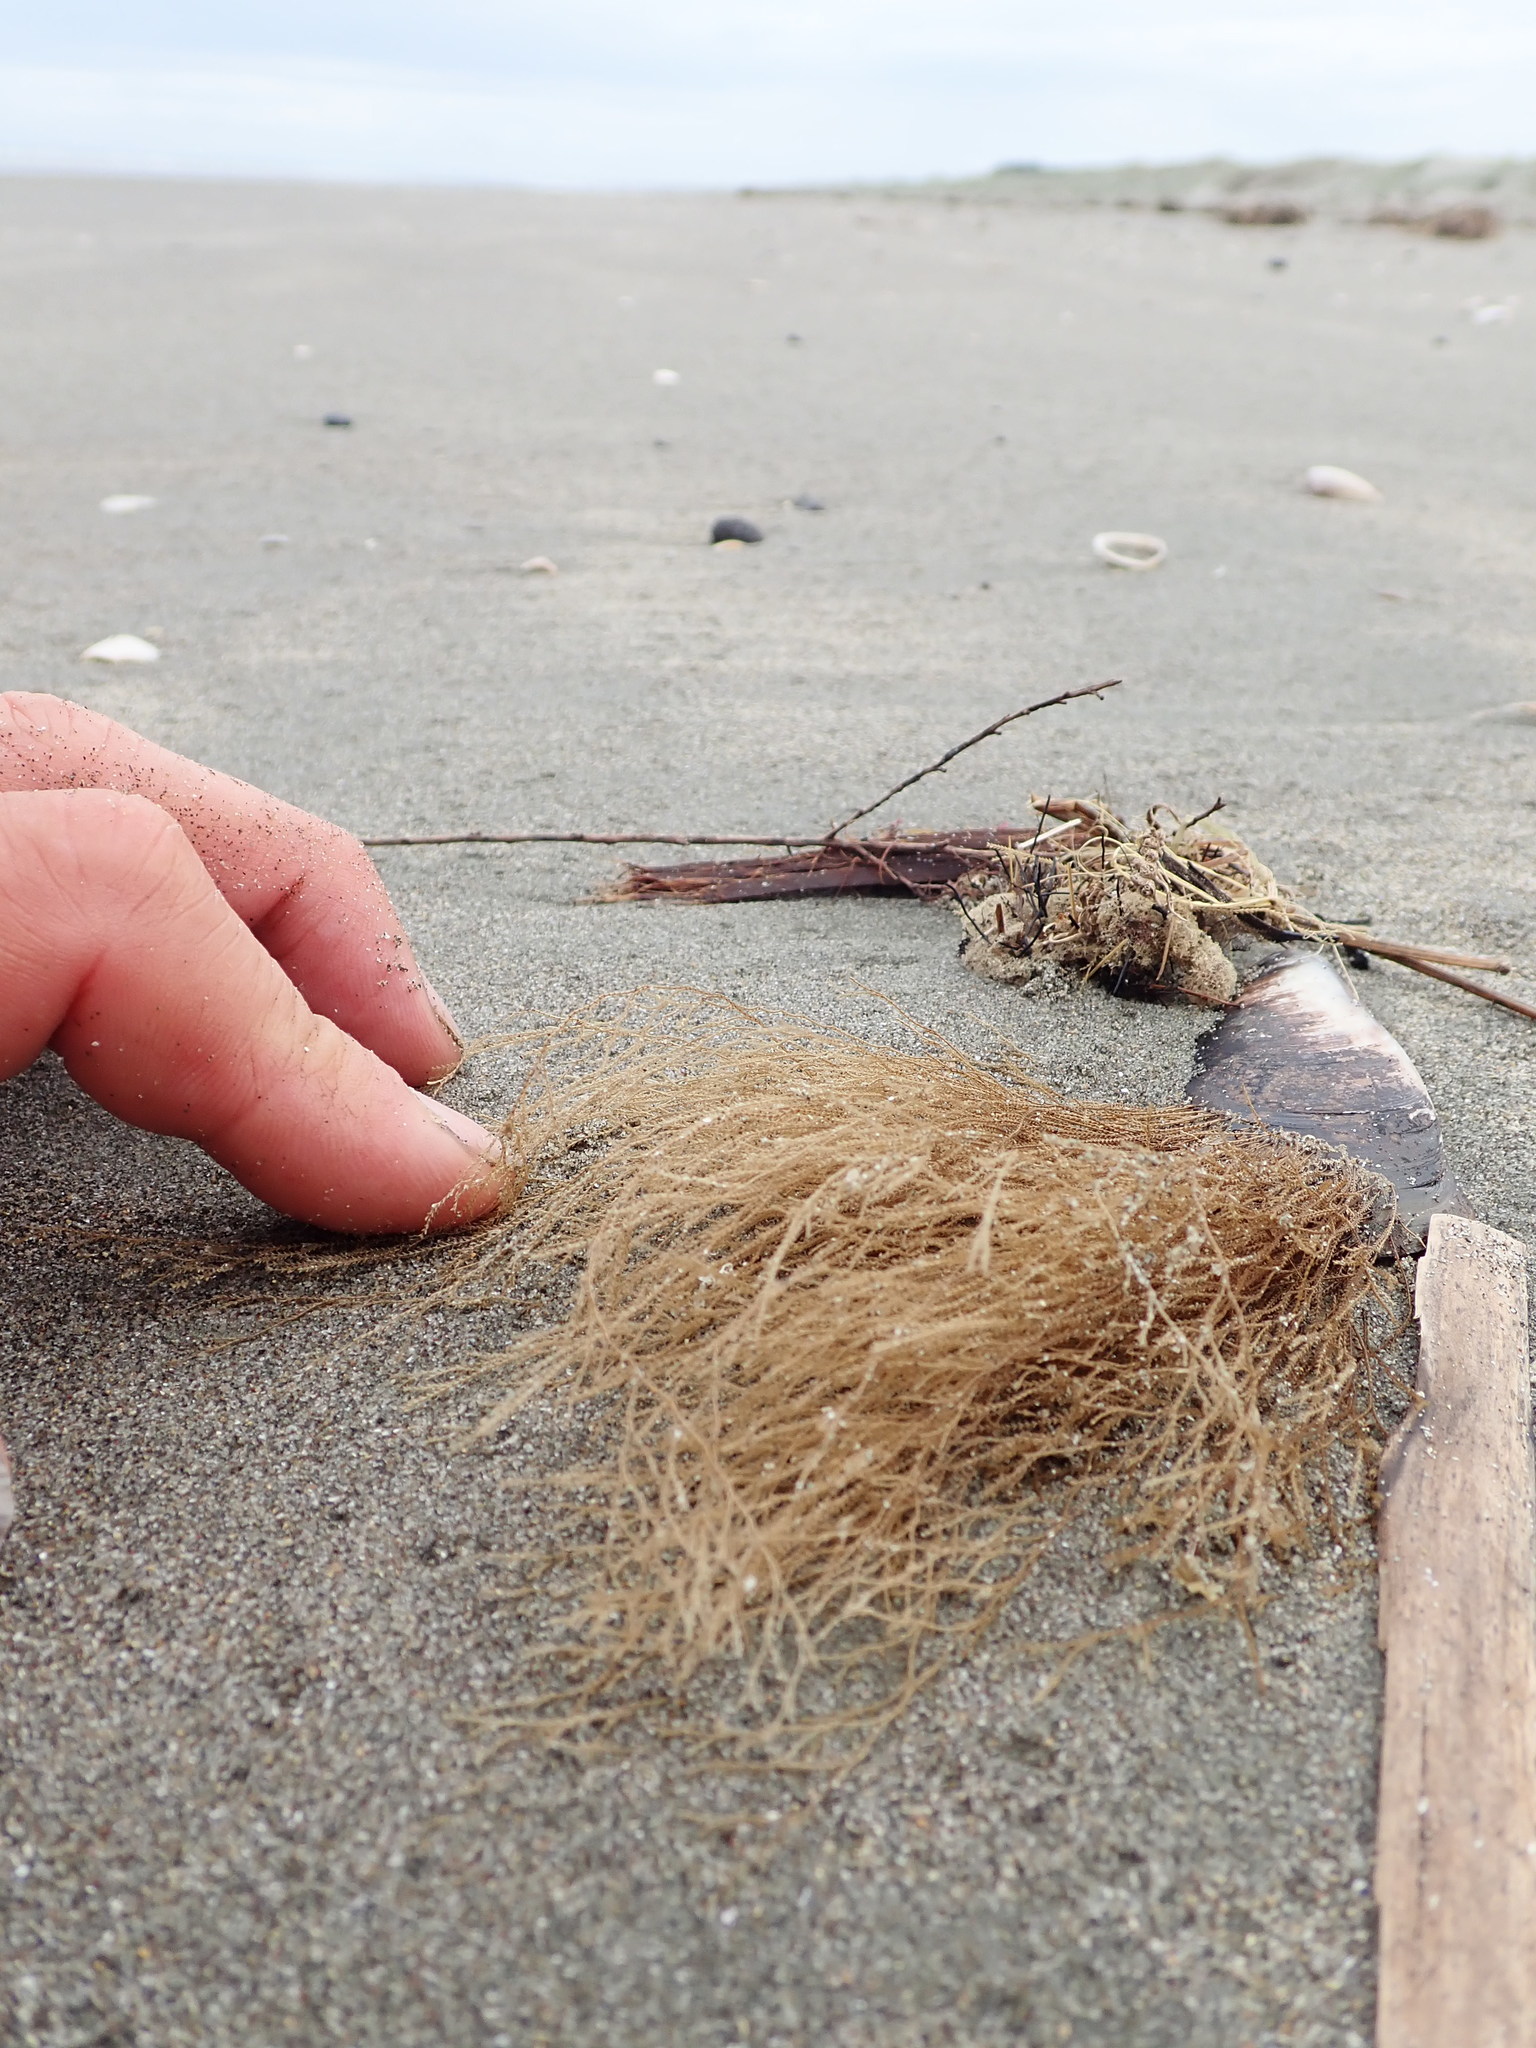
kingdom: Animalia
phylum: Cnidaria
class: Hydrozoa
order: Leptothecata
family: Sertulariidae
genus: Amphisbetia
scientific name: Amphisbetia bispinosa
